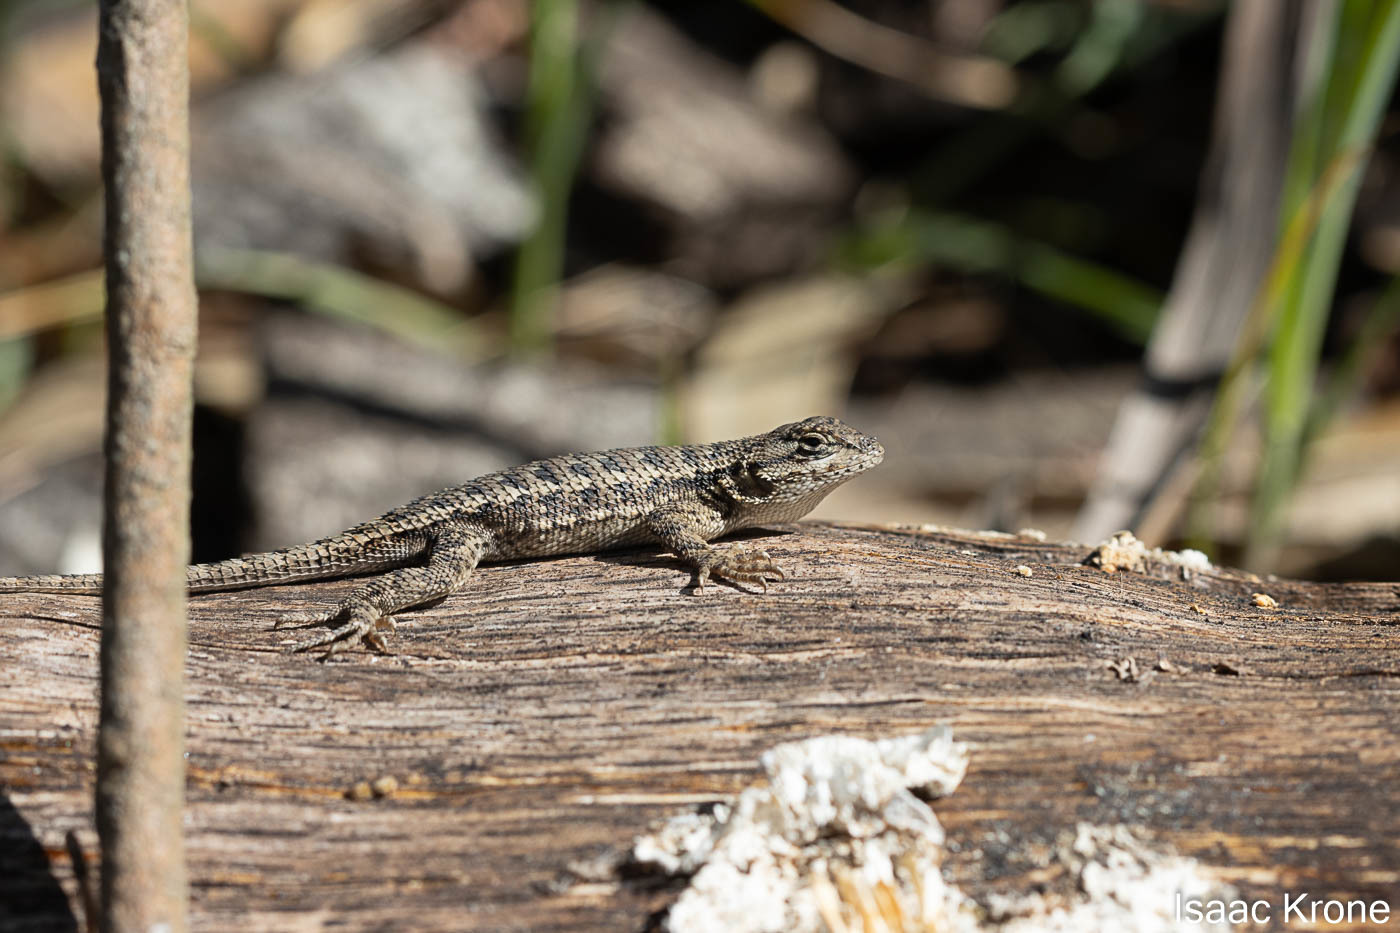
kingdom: Animalia
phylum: Chordata
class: Squamata
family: Phrynosomatidae
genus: Sceloporus
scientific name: Sceloporus occidentalis
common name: Western fence lizard
